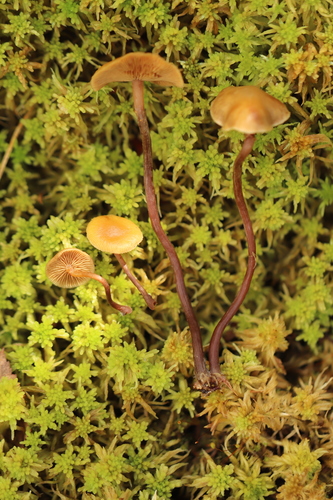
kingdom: Fungi
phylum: Basidiomycota
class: Agaricomycetes
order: Agaricales
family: Strophariaceae
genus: Pholiota
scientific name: Pholiota lignicola
